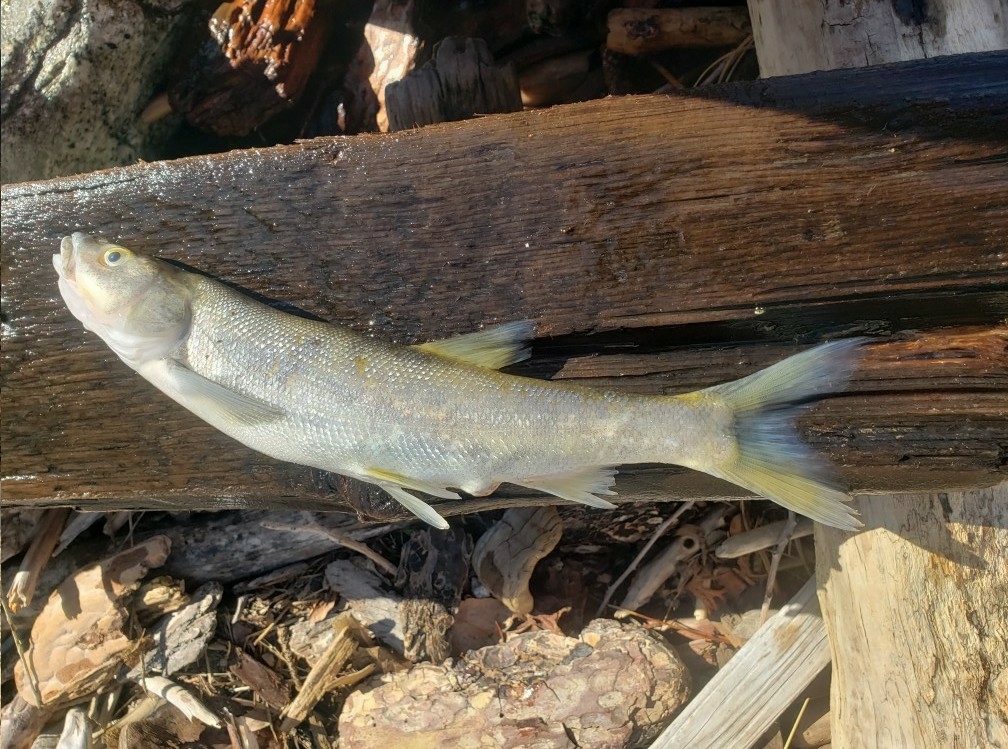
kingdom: Animalia
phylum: Chordata
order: Cypriniformes
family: Cyprinidae
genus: Ptychocheilus
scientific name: Ptychocheilus oregonensis
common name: Northern pikeminnow
